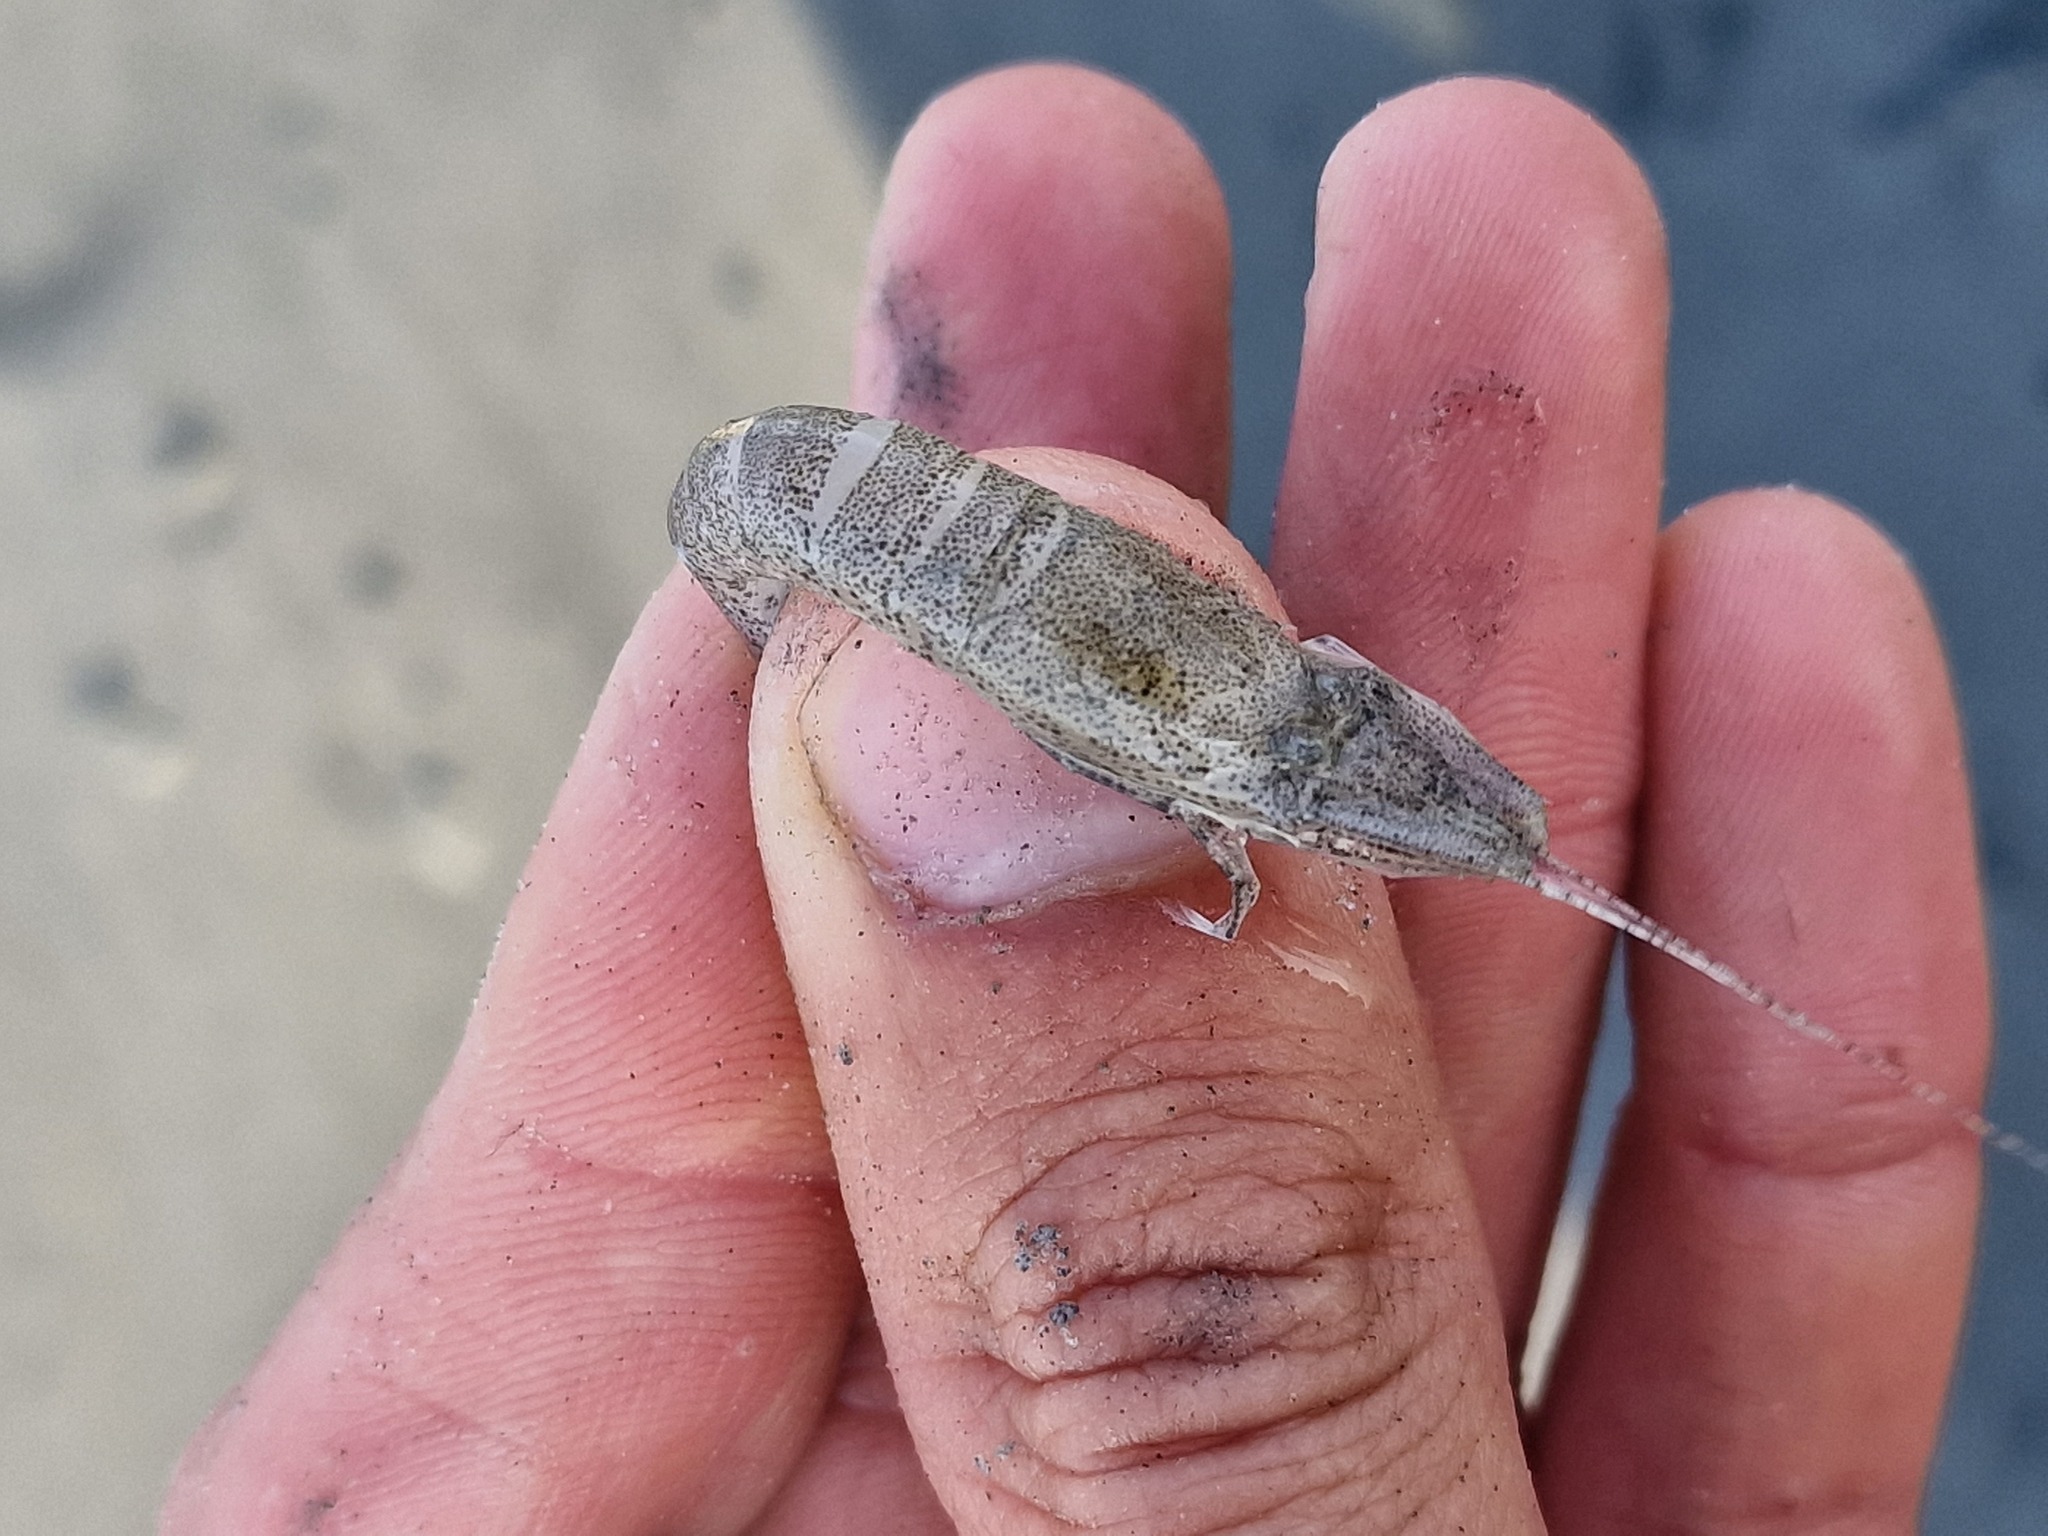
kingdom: Animalia
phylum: Arthropoda
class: Malacostraca
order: Decapoda
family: Crangonidae
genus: Crangon
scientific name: Crangon crangon
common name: Brown shrimp
